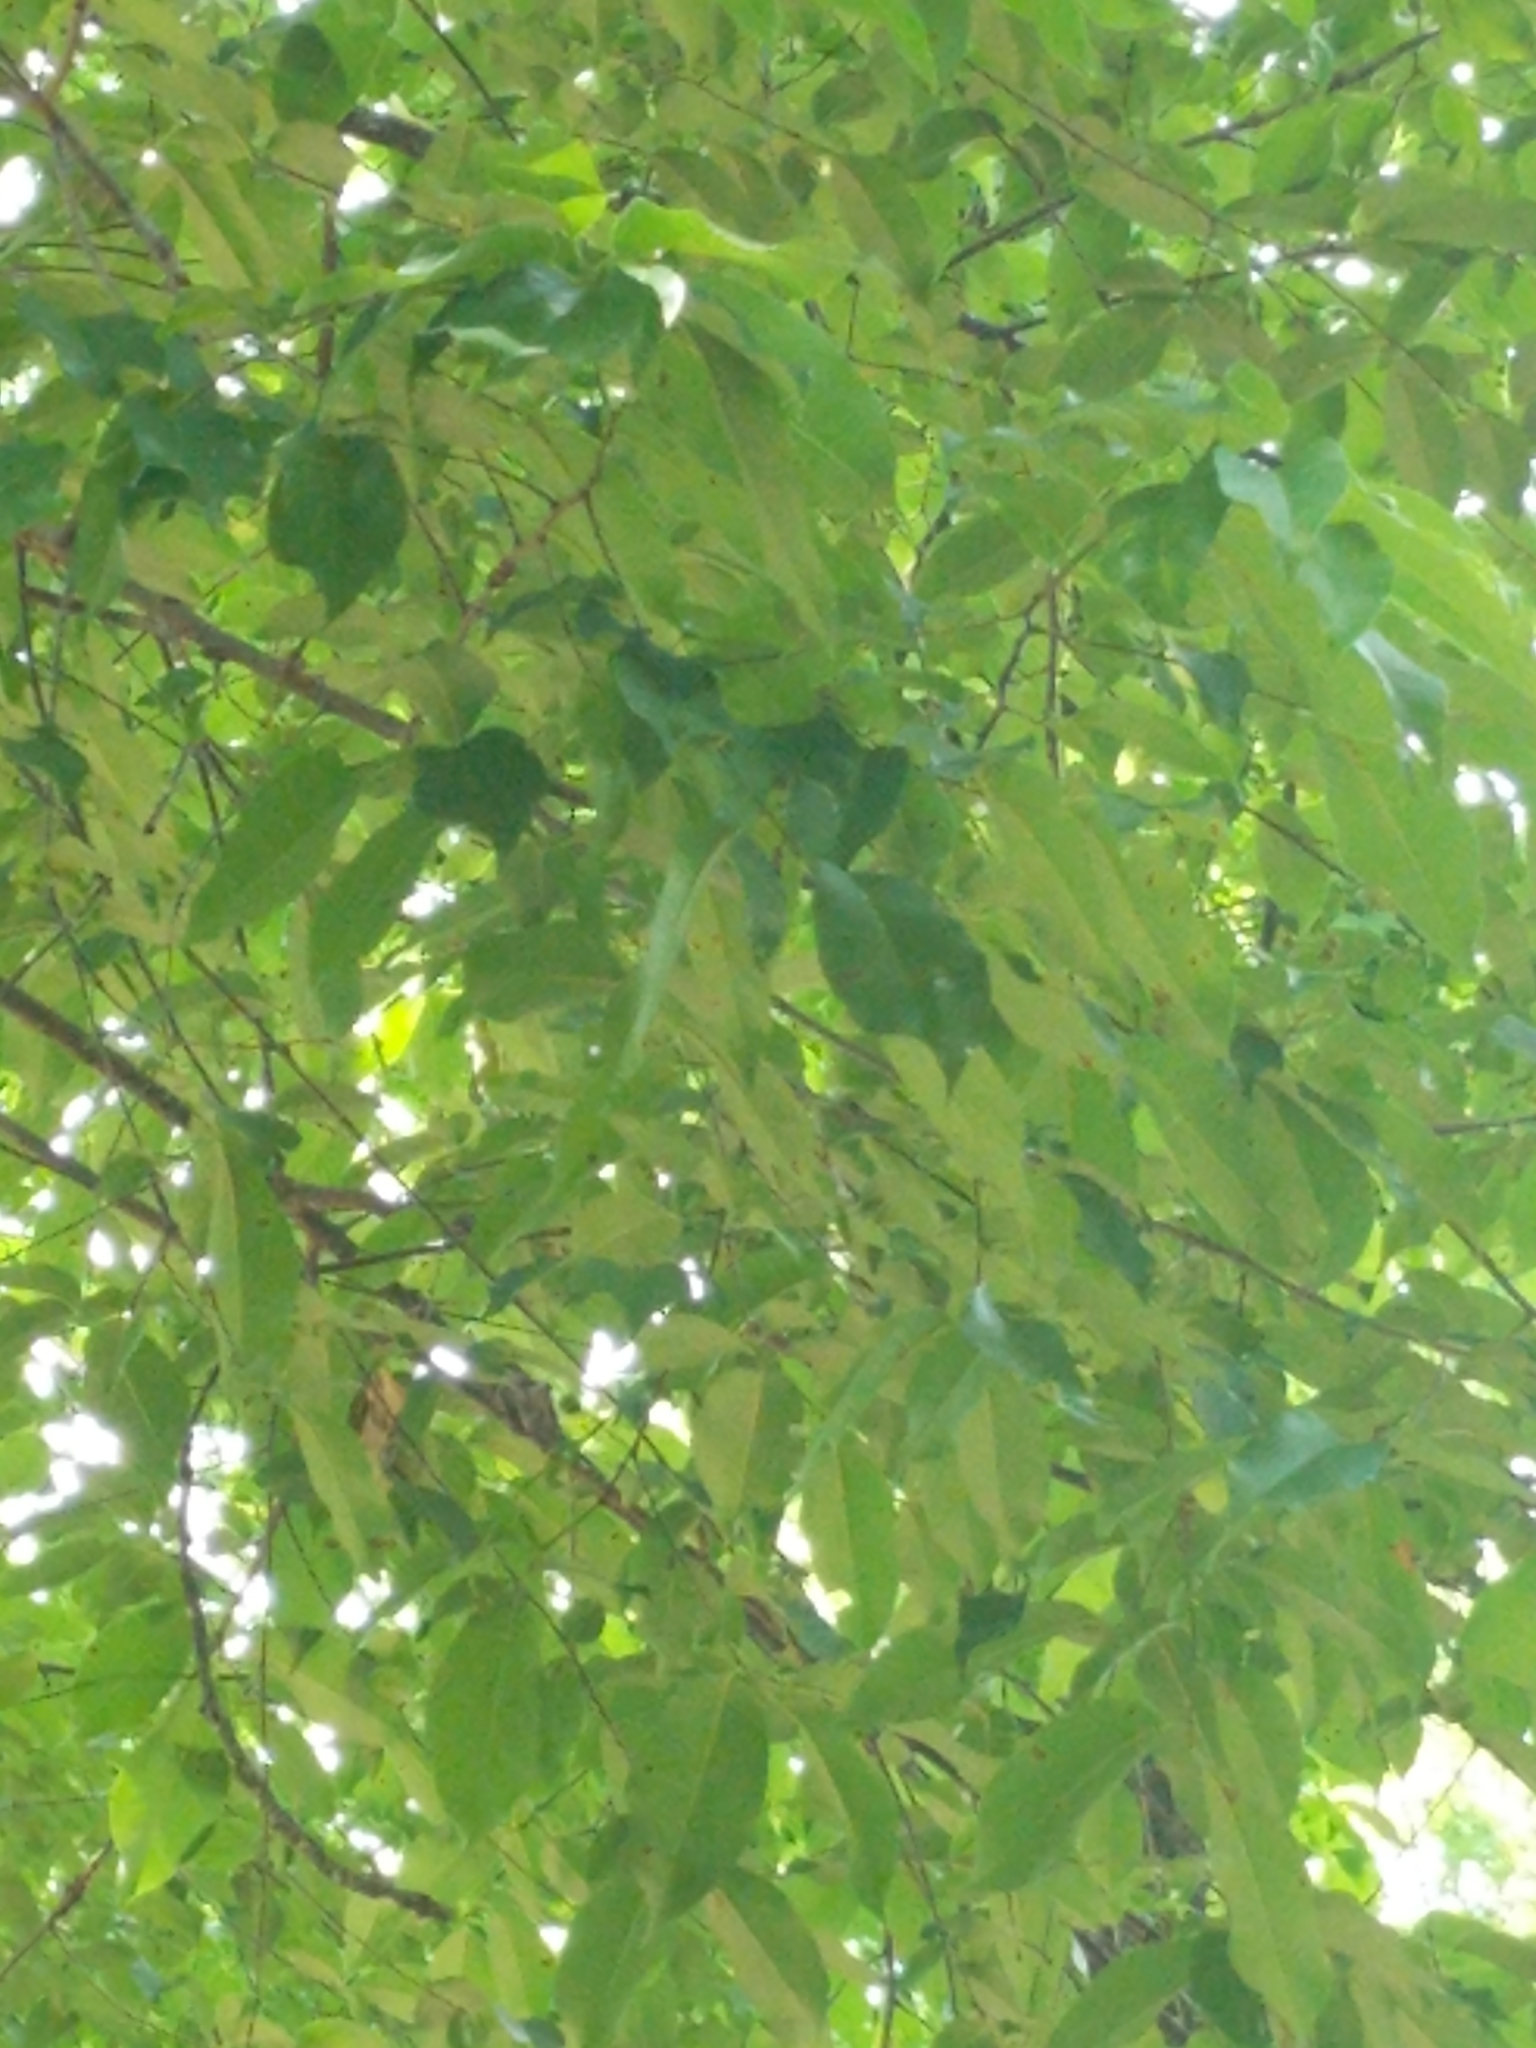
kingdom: Plantae
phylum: Tracheophyta
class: Magnoliopsida
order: Rosales
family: Rosaceae
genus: Prunus
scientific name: Prunus serotina
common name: Black cherry
